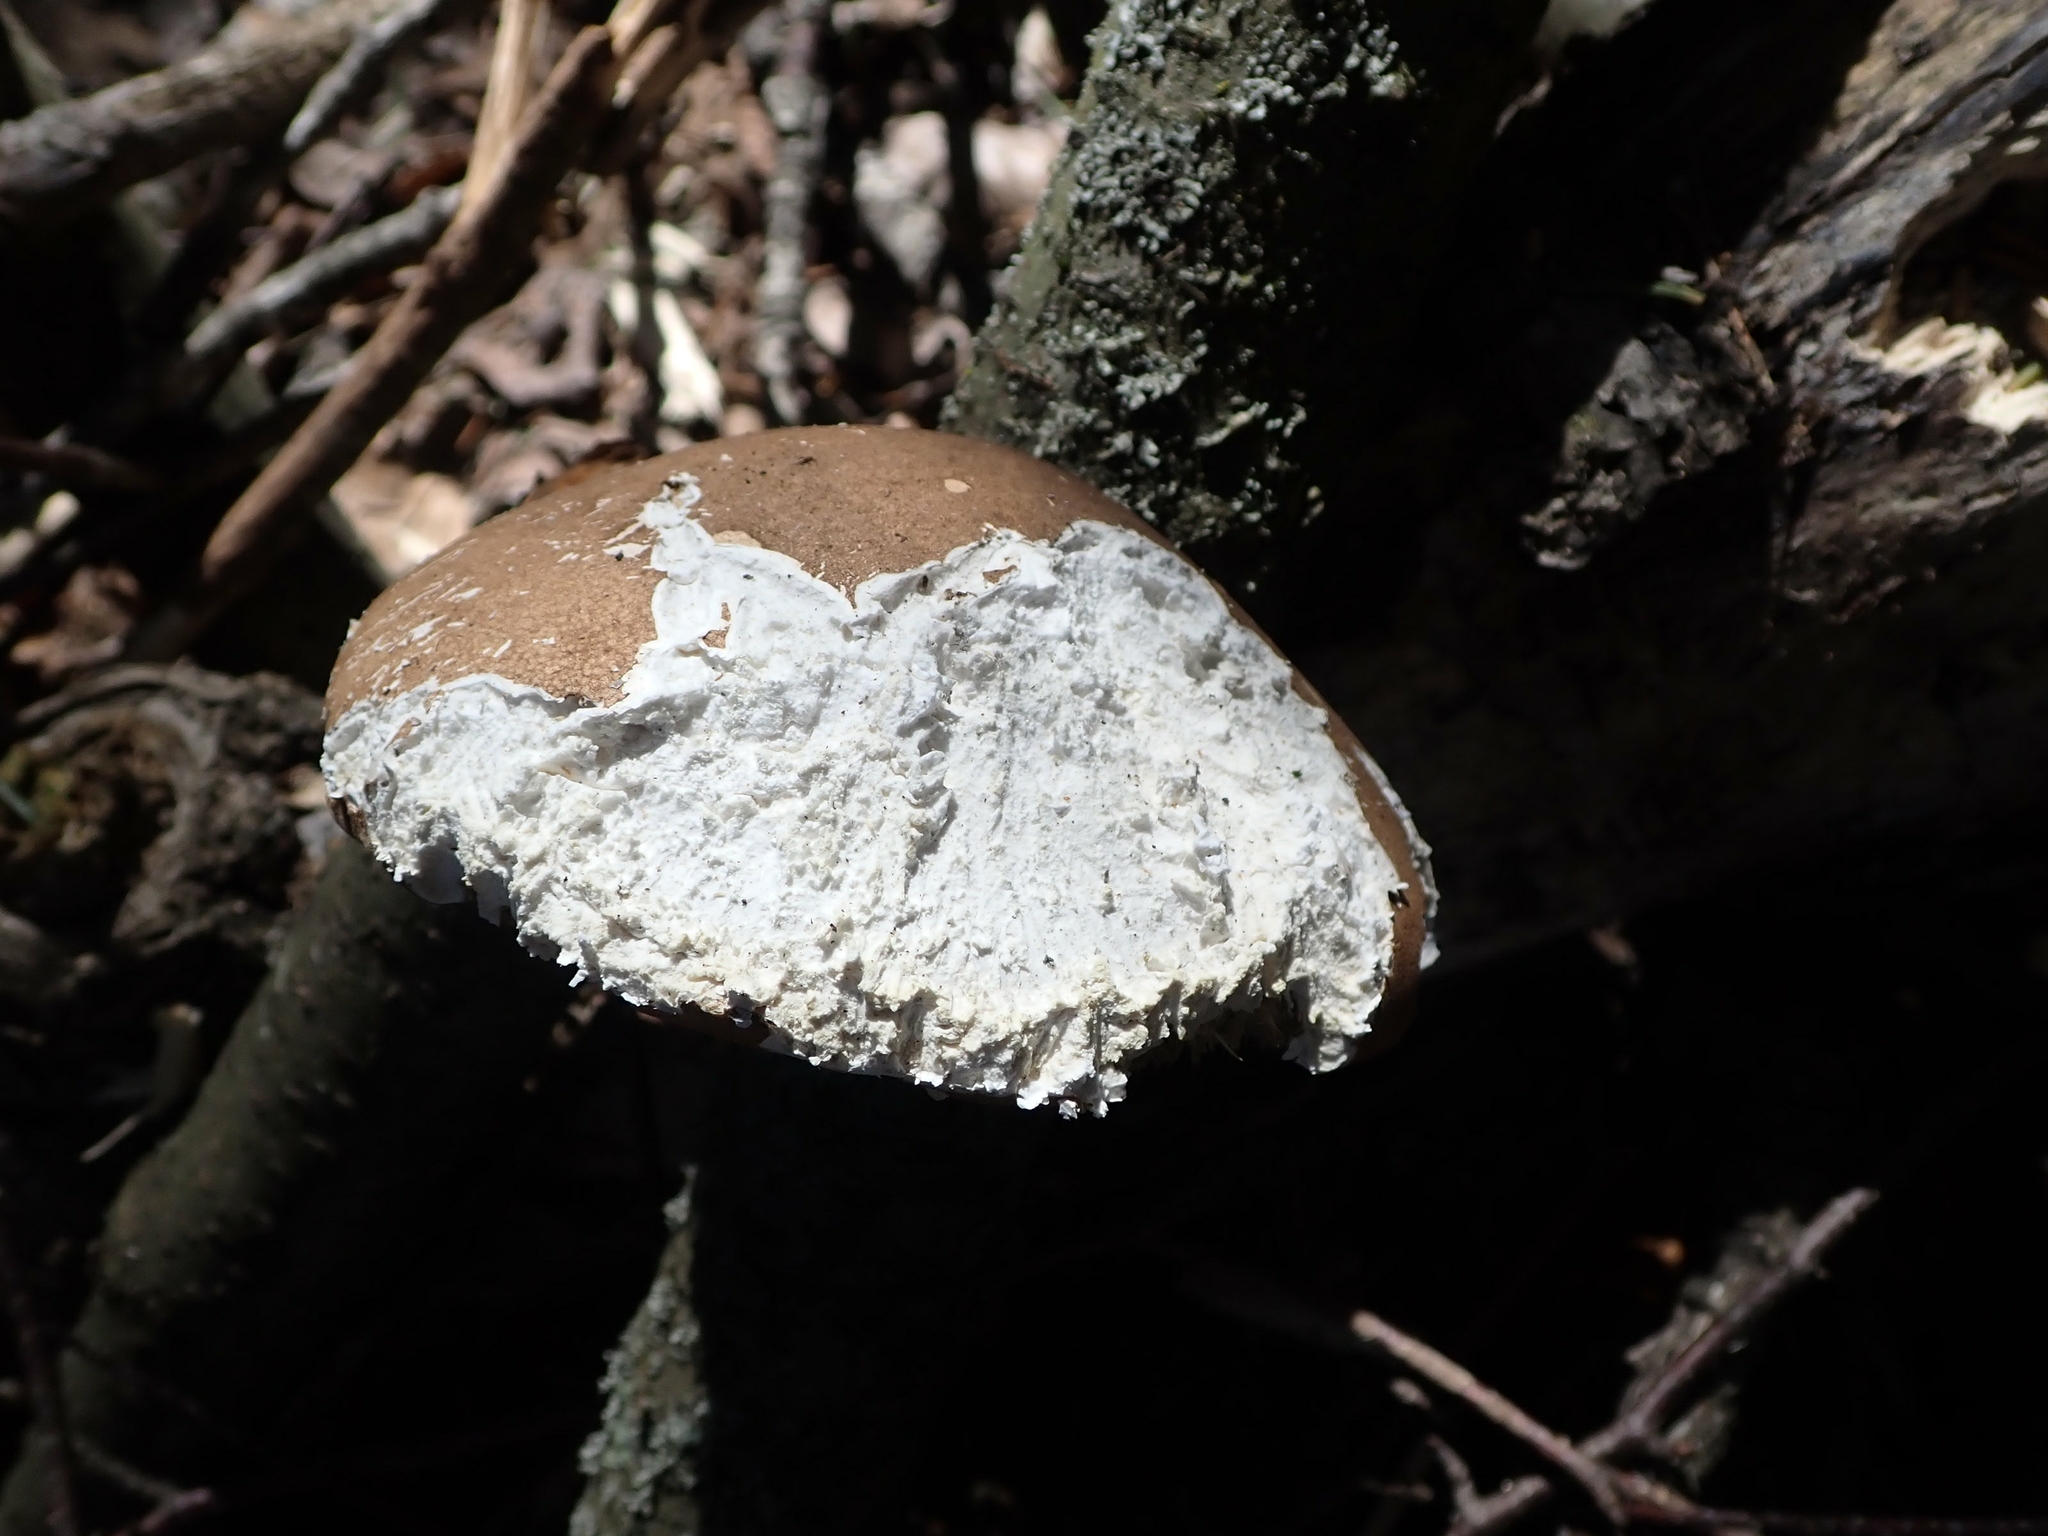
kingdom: Fungi
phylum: Basidiomycota
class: Agaricomycetes
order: Polyporales
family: Fomitopsidaceae
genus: Fomitopsis
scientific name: Fomitopsis betulina
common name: Birch polypore
